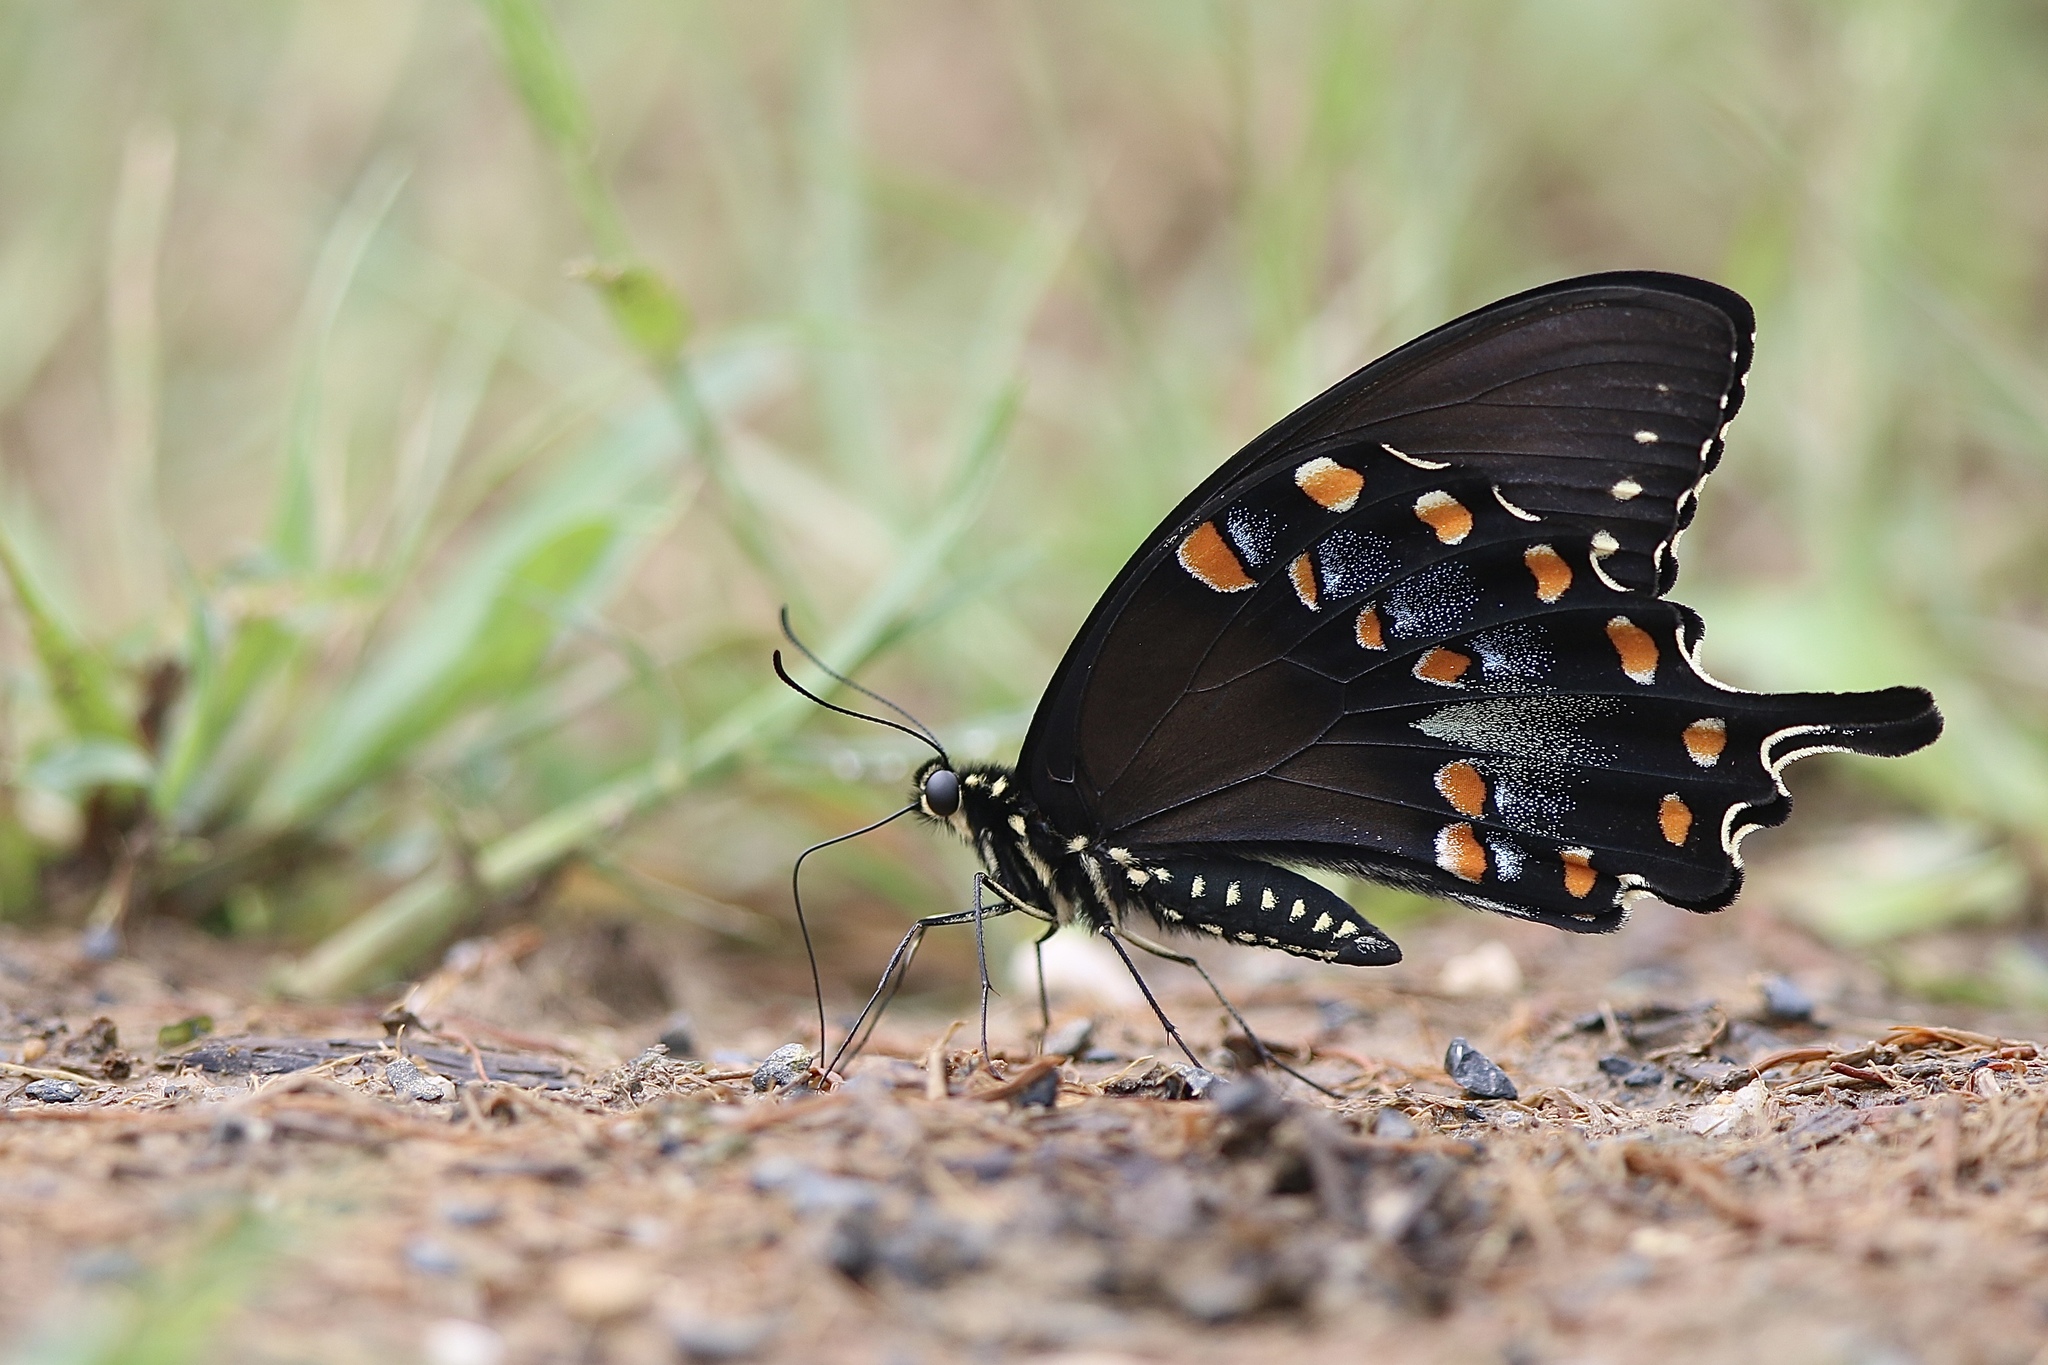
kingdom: Animalia
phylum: Arthropoda
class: Insecta
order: Lepidoptera
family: Papilionidae
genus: Papilio
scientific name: Papilio troilus
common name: Spicebush swallowtail
